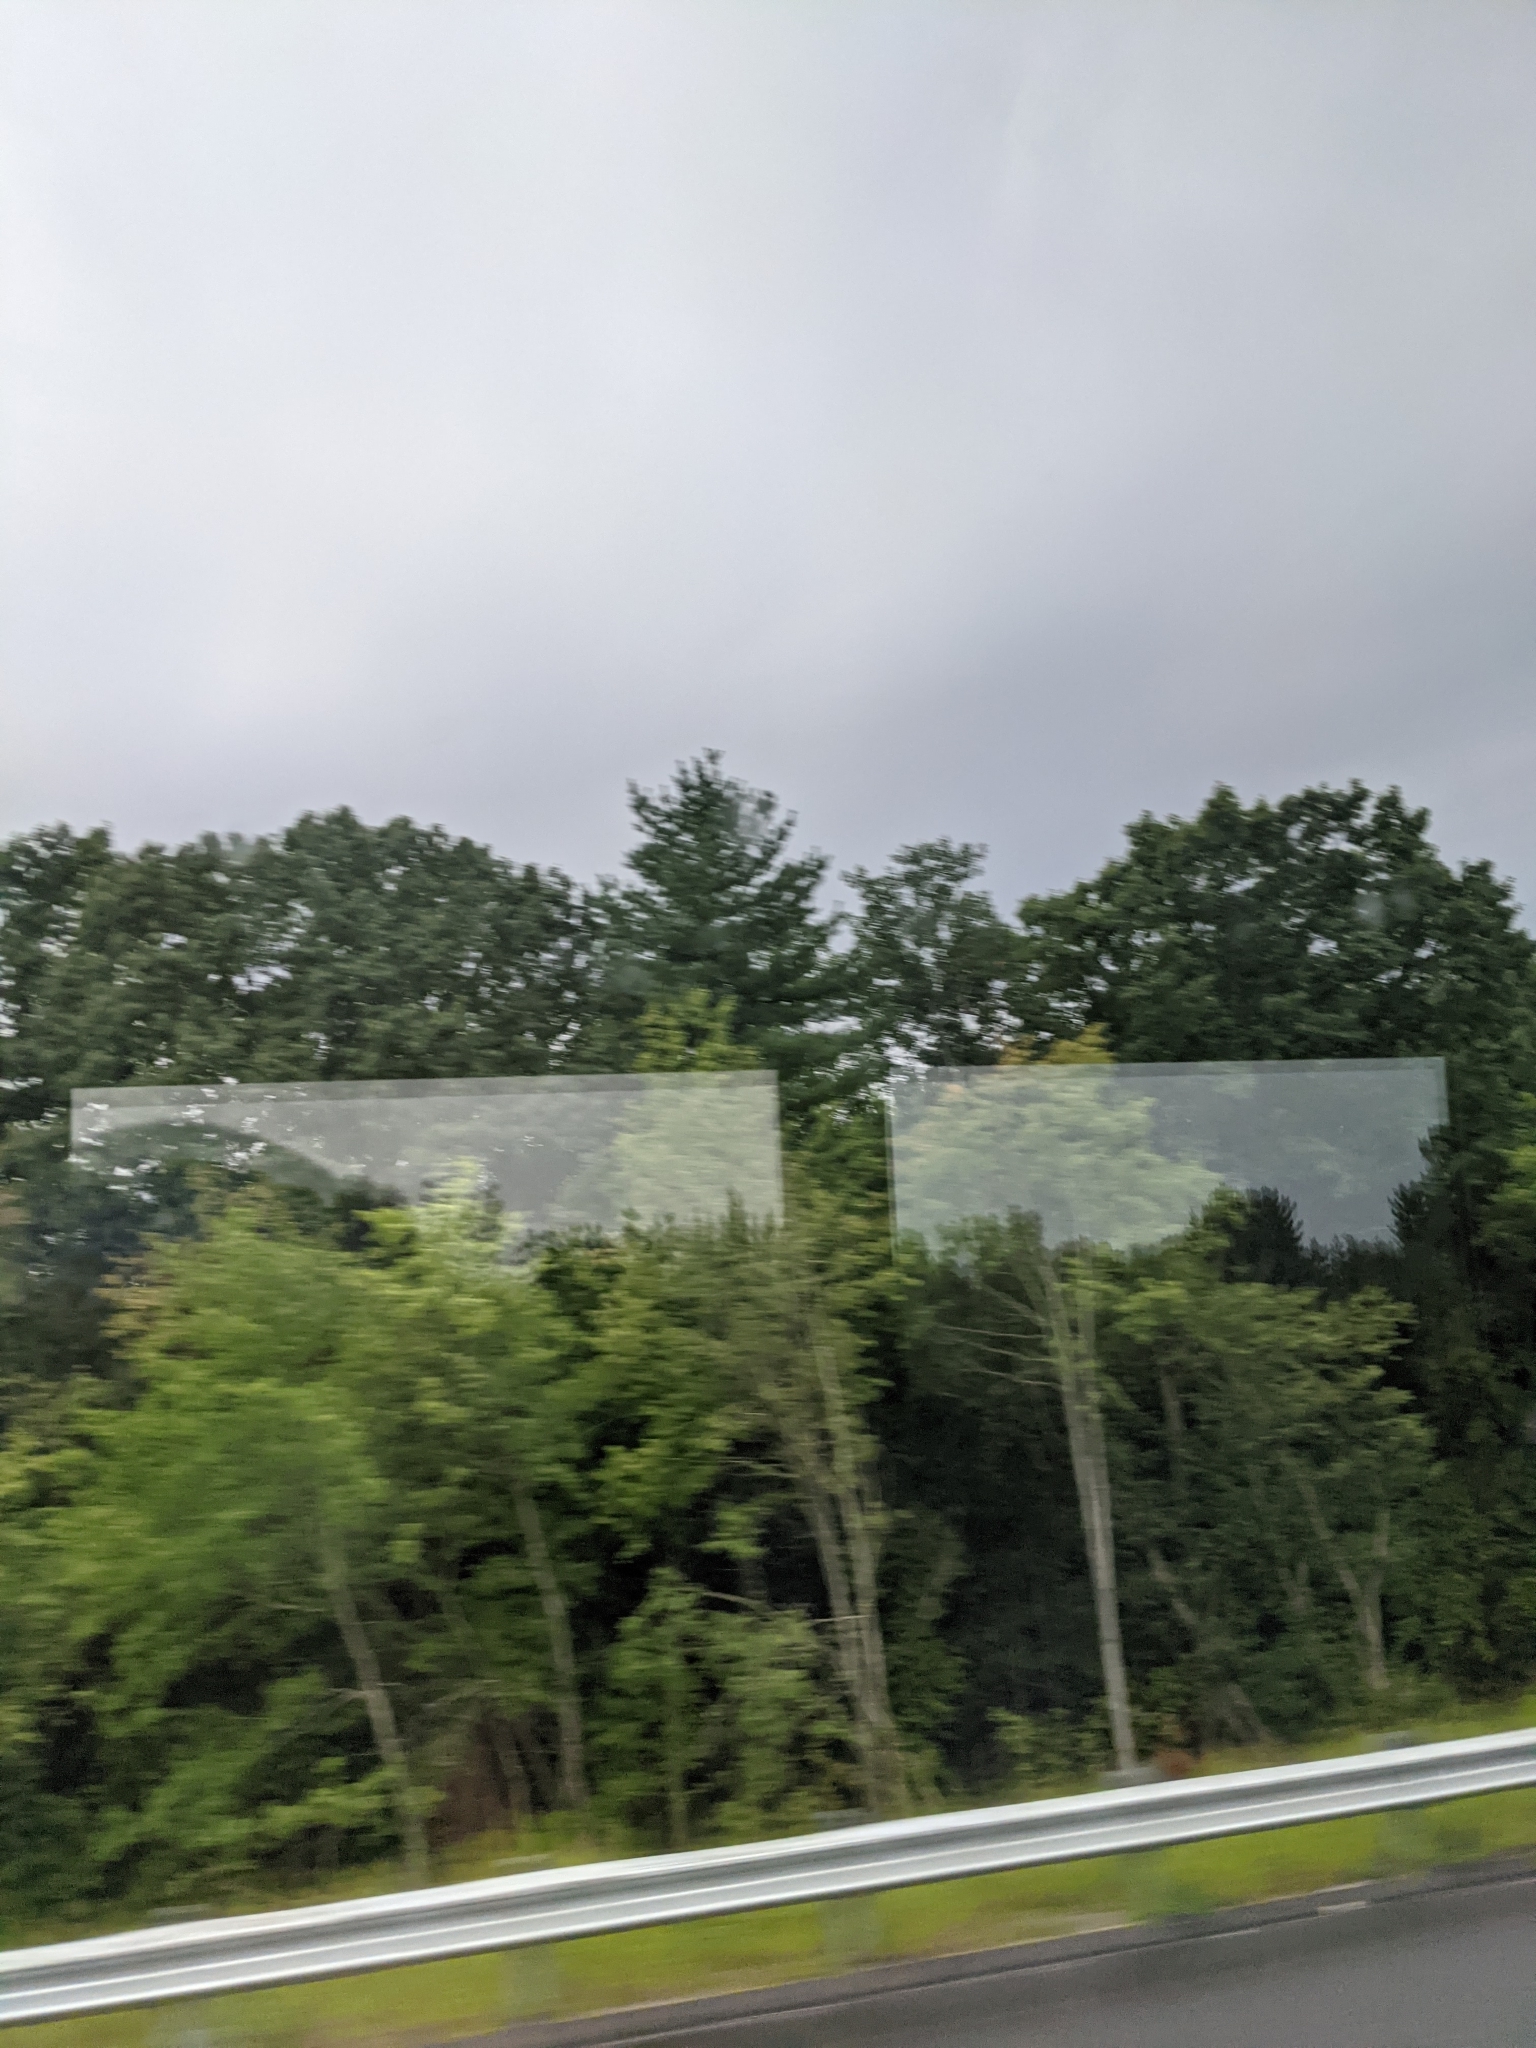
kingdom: Plantae
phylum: Tracheophyta
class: Pinopsida
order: Pinales
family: Pinaceae
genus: Pinus
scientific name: Pinus strobus
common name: Weymouth pine
